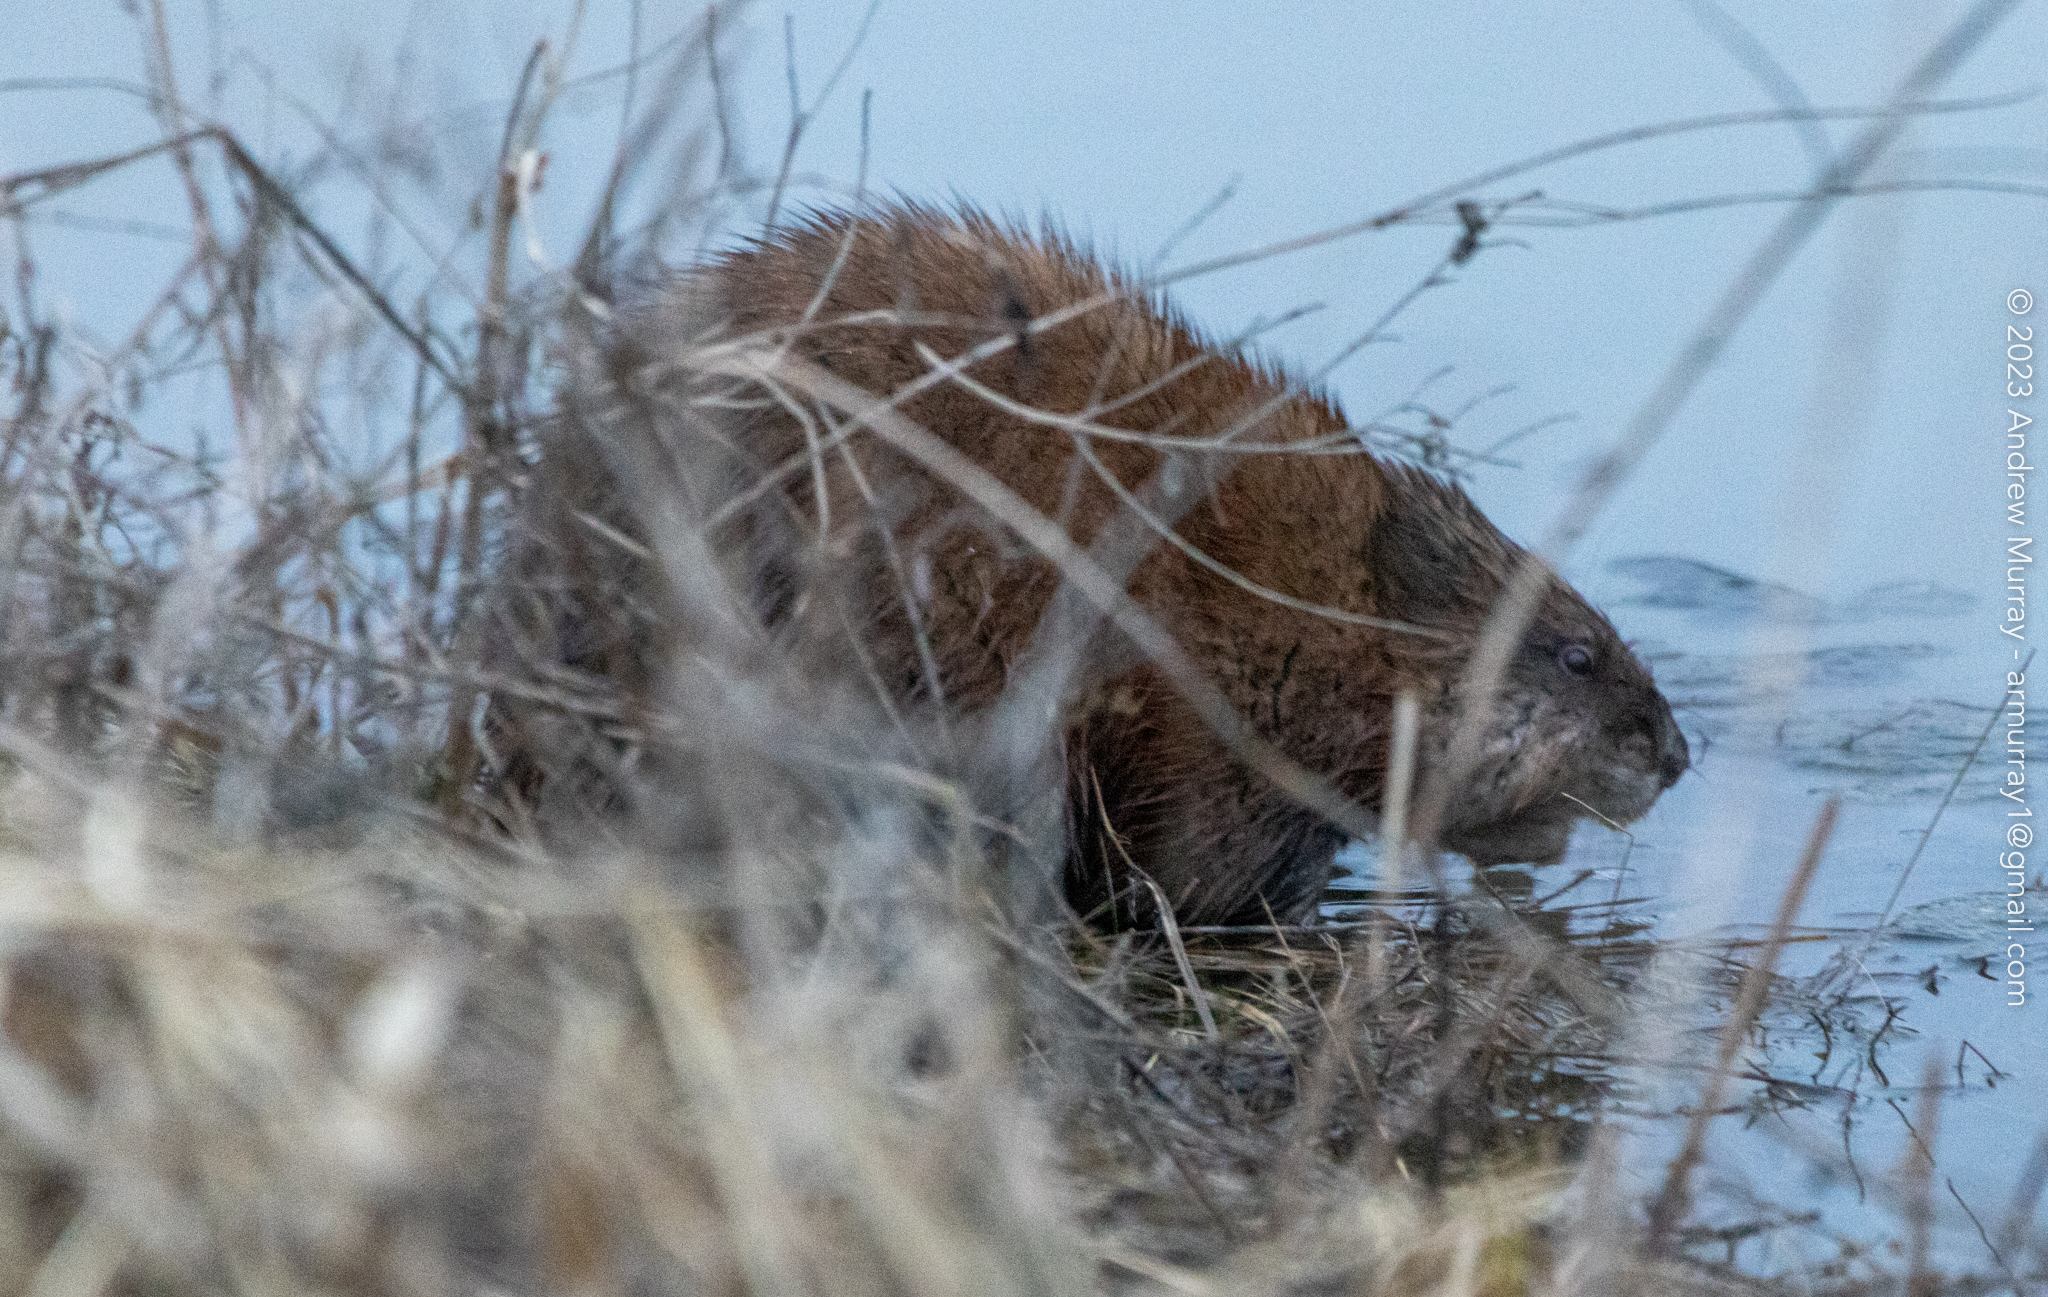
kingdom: Animalia
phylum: Chordata
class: Mammalia
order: Rodentia
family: Cricetidae
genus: Ondatra
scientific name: Ondatra zibethicus
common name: Muskrat
